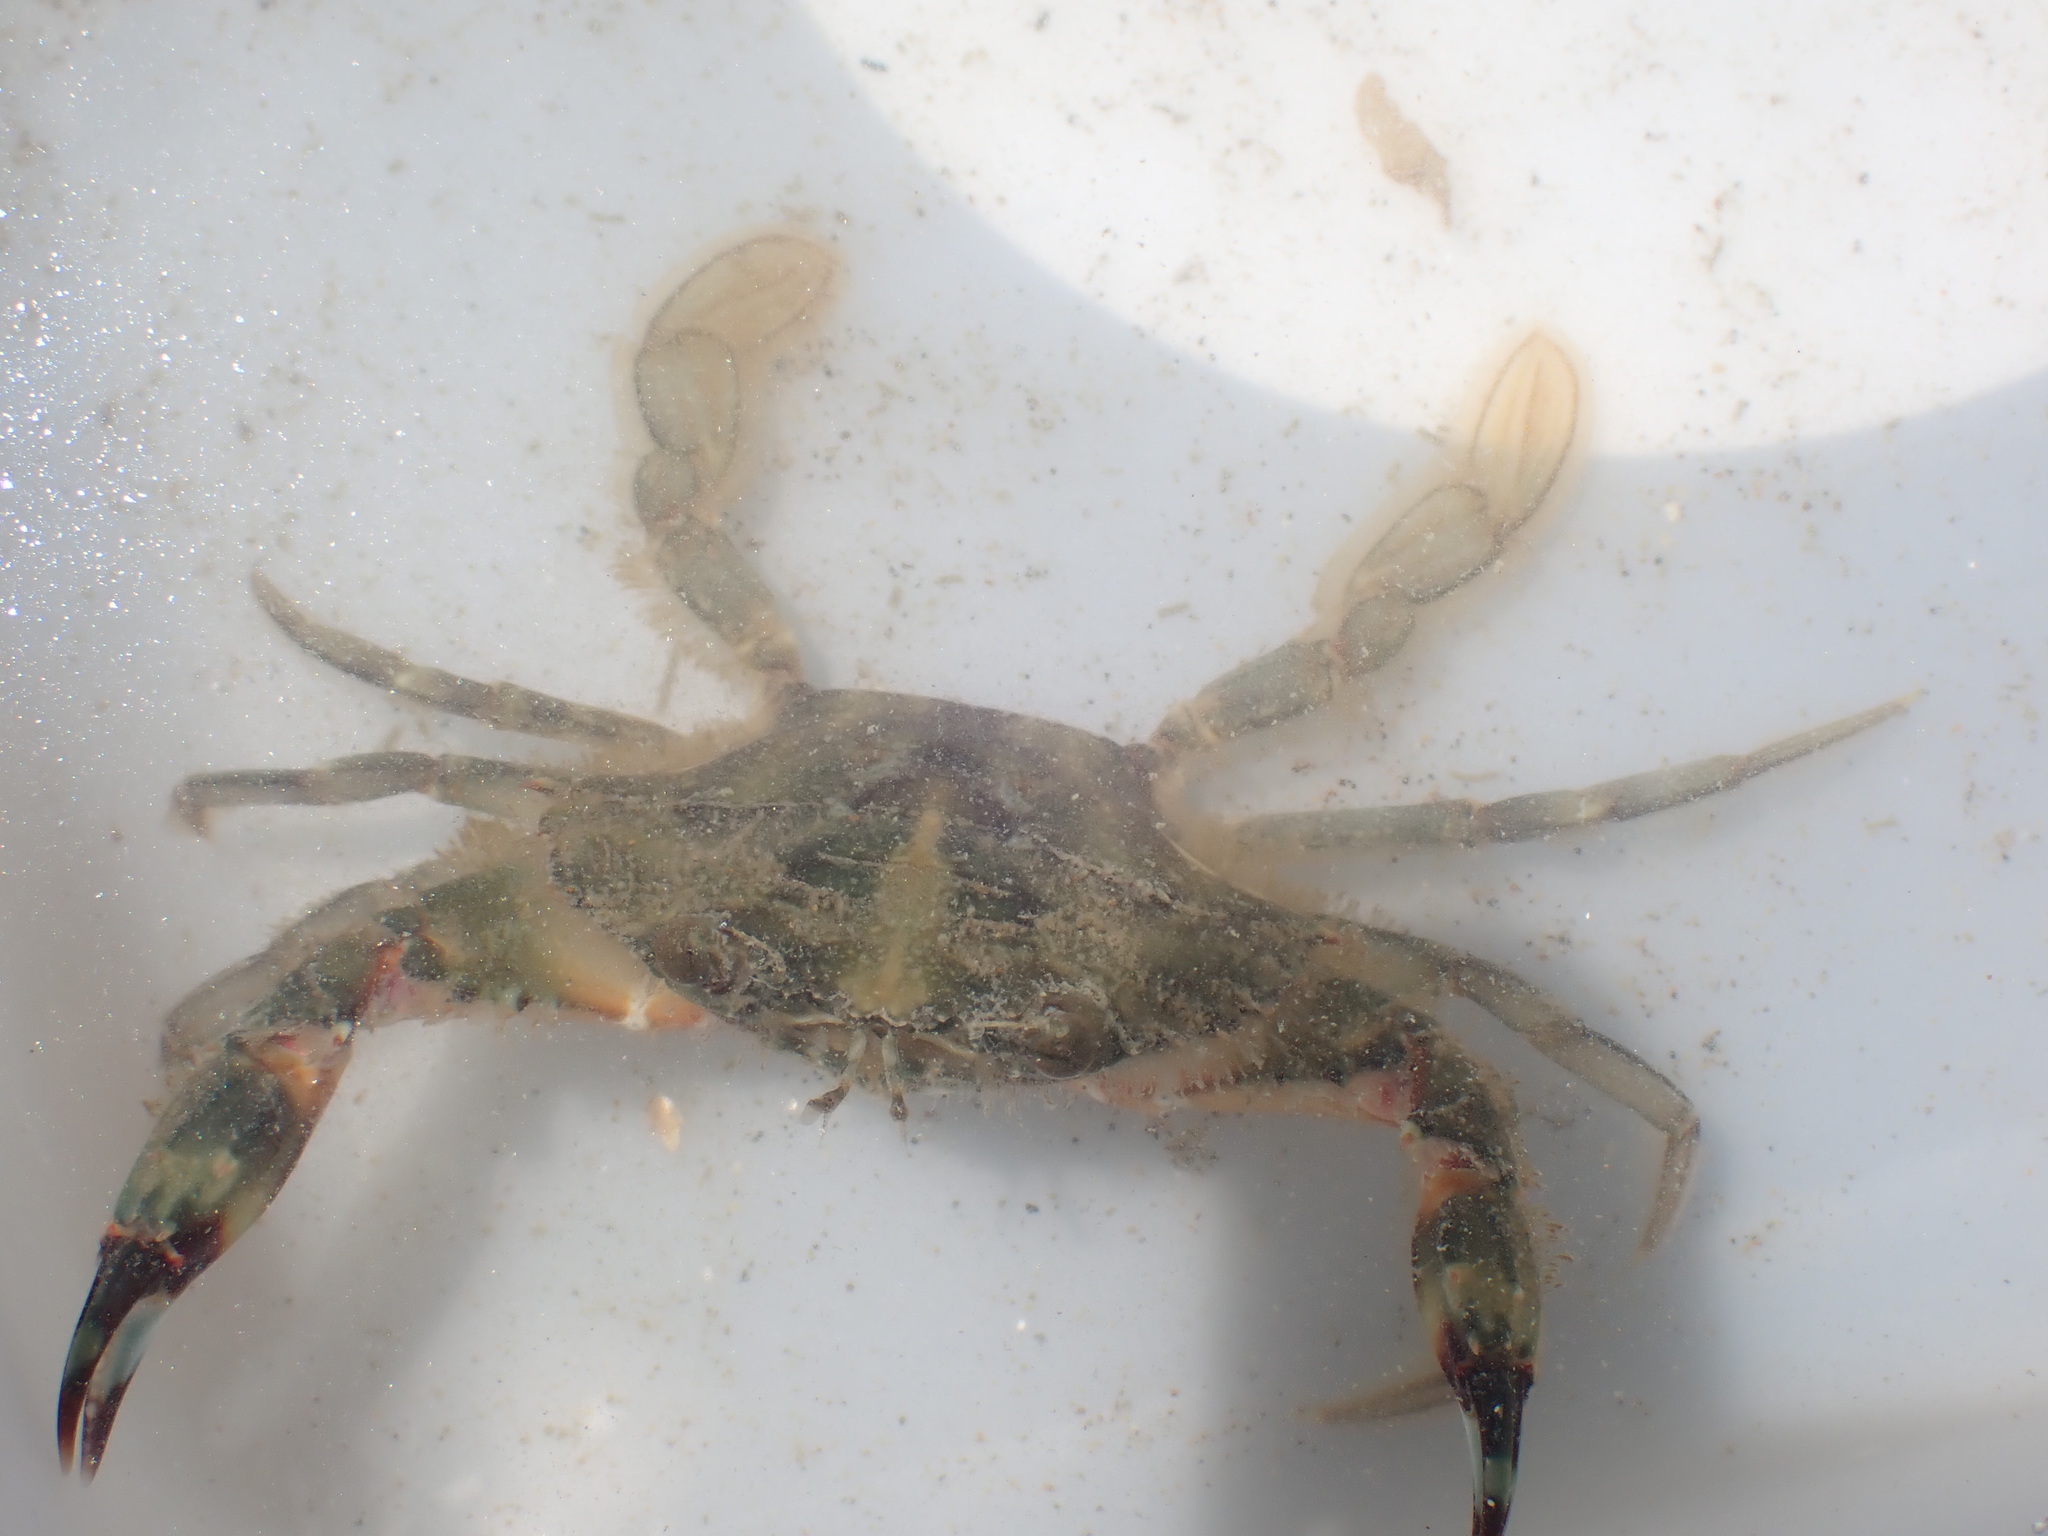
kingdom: Animalia
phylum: Arthropoda
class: Malacostraca
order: Decapoda
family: Portunidae
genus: Charybdis
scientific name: Charybdis japonica
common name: Asian paddle crab
